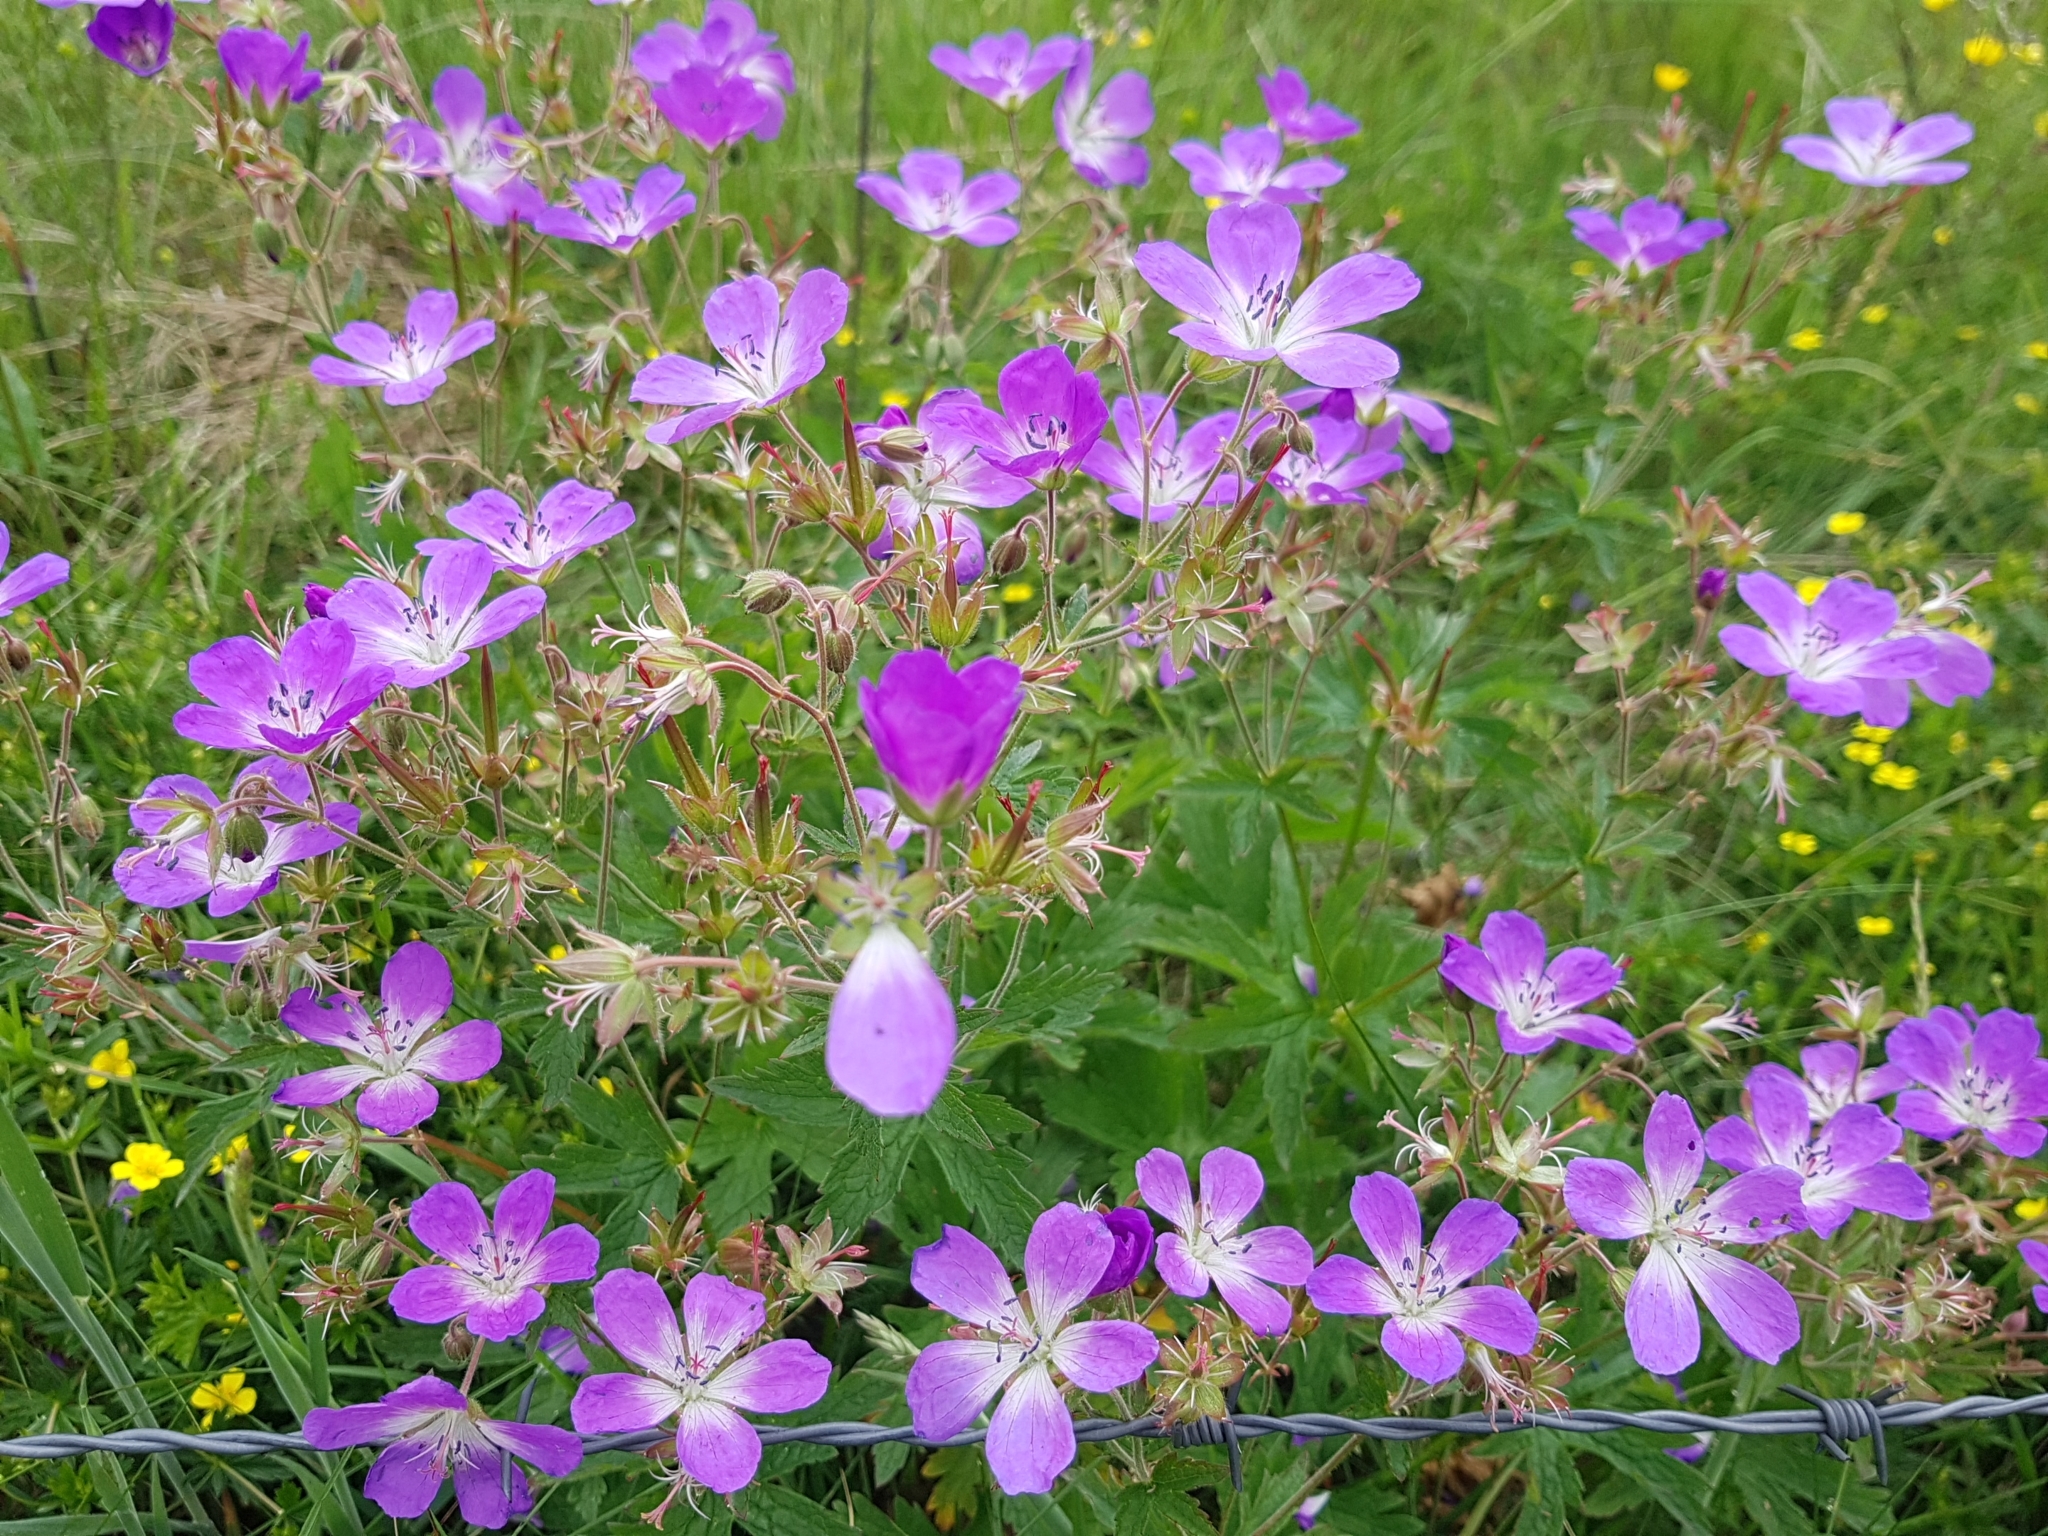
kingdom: Plantae
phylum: Tracheophyta
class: Magnoliopsida
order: Geraniales
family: Geraniaceae
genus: Geranium
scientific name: Geranium sylvaticum
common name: Wood crane's-bill
